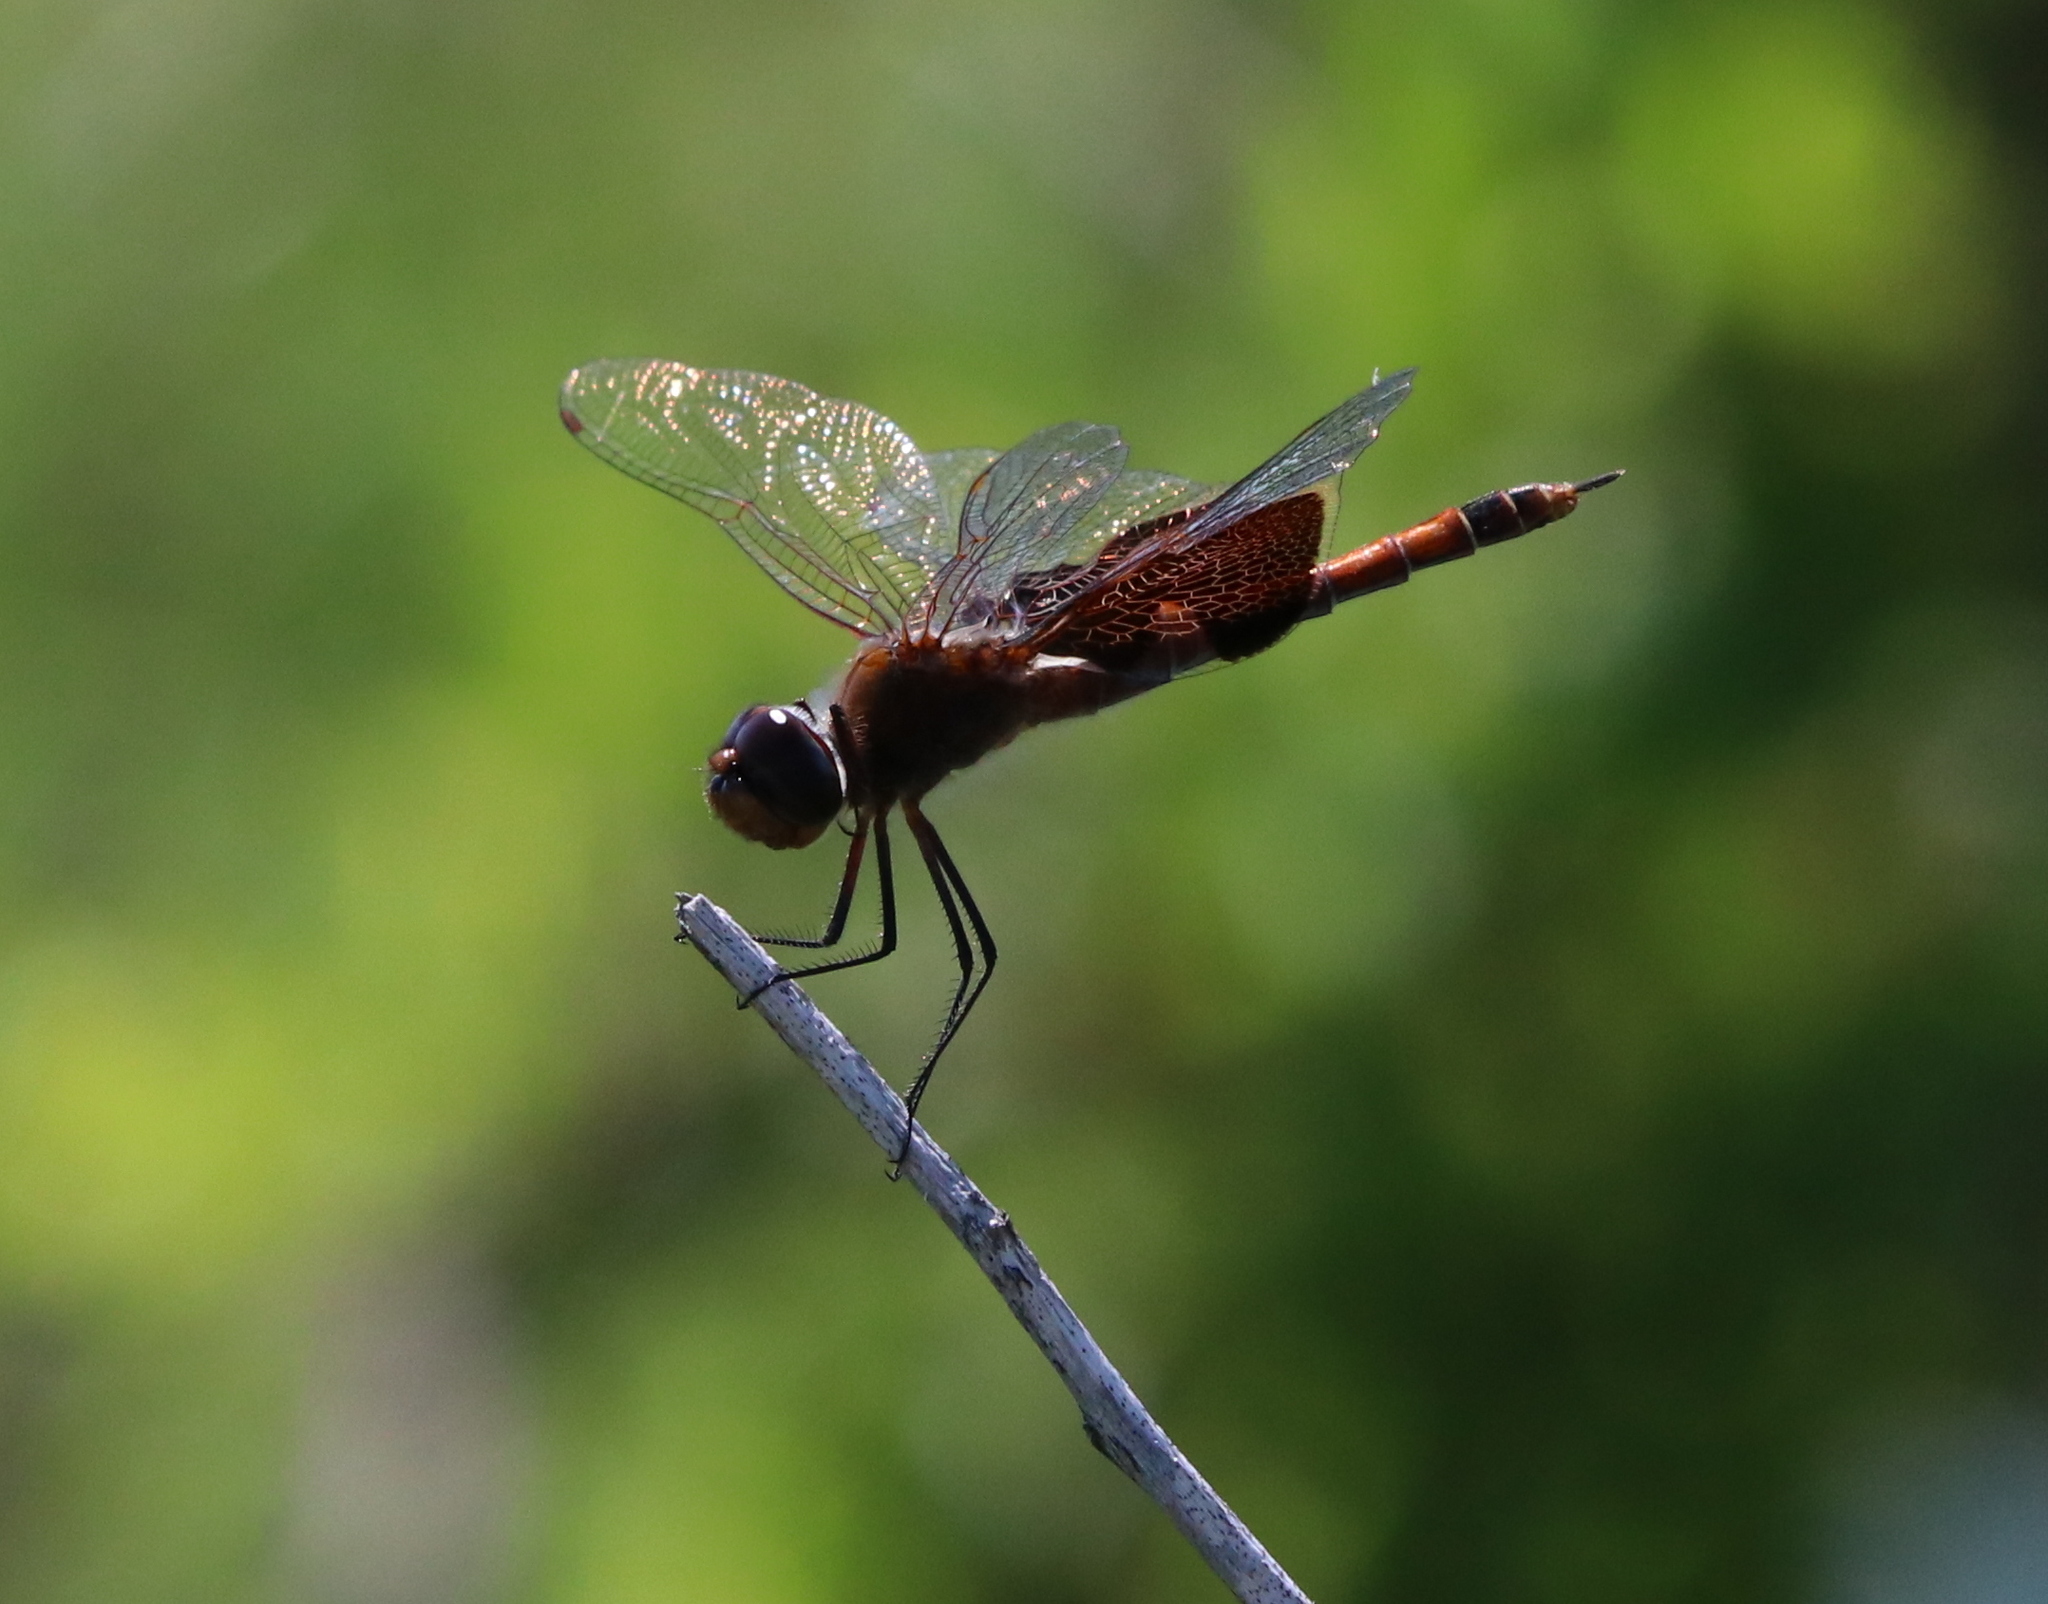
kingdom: Animalia
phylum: Arthropoda
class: Insecta
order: Odonata
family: Libellulidae
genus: Tramea
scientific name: Tramea carolina
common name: Carolina saddlebags
